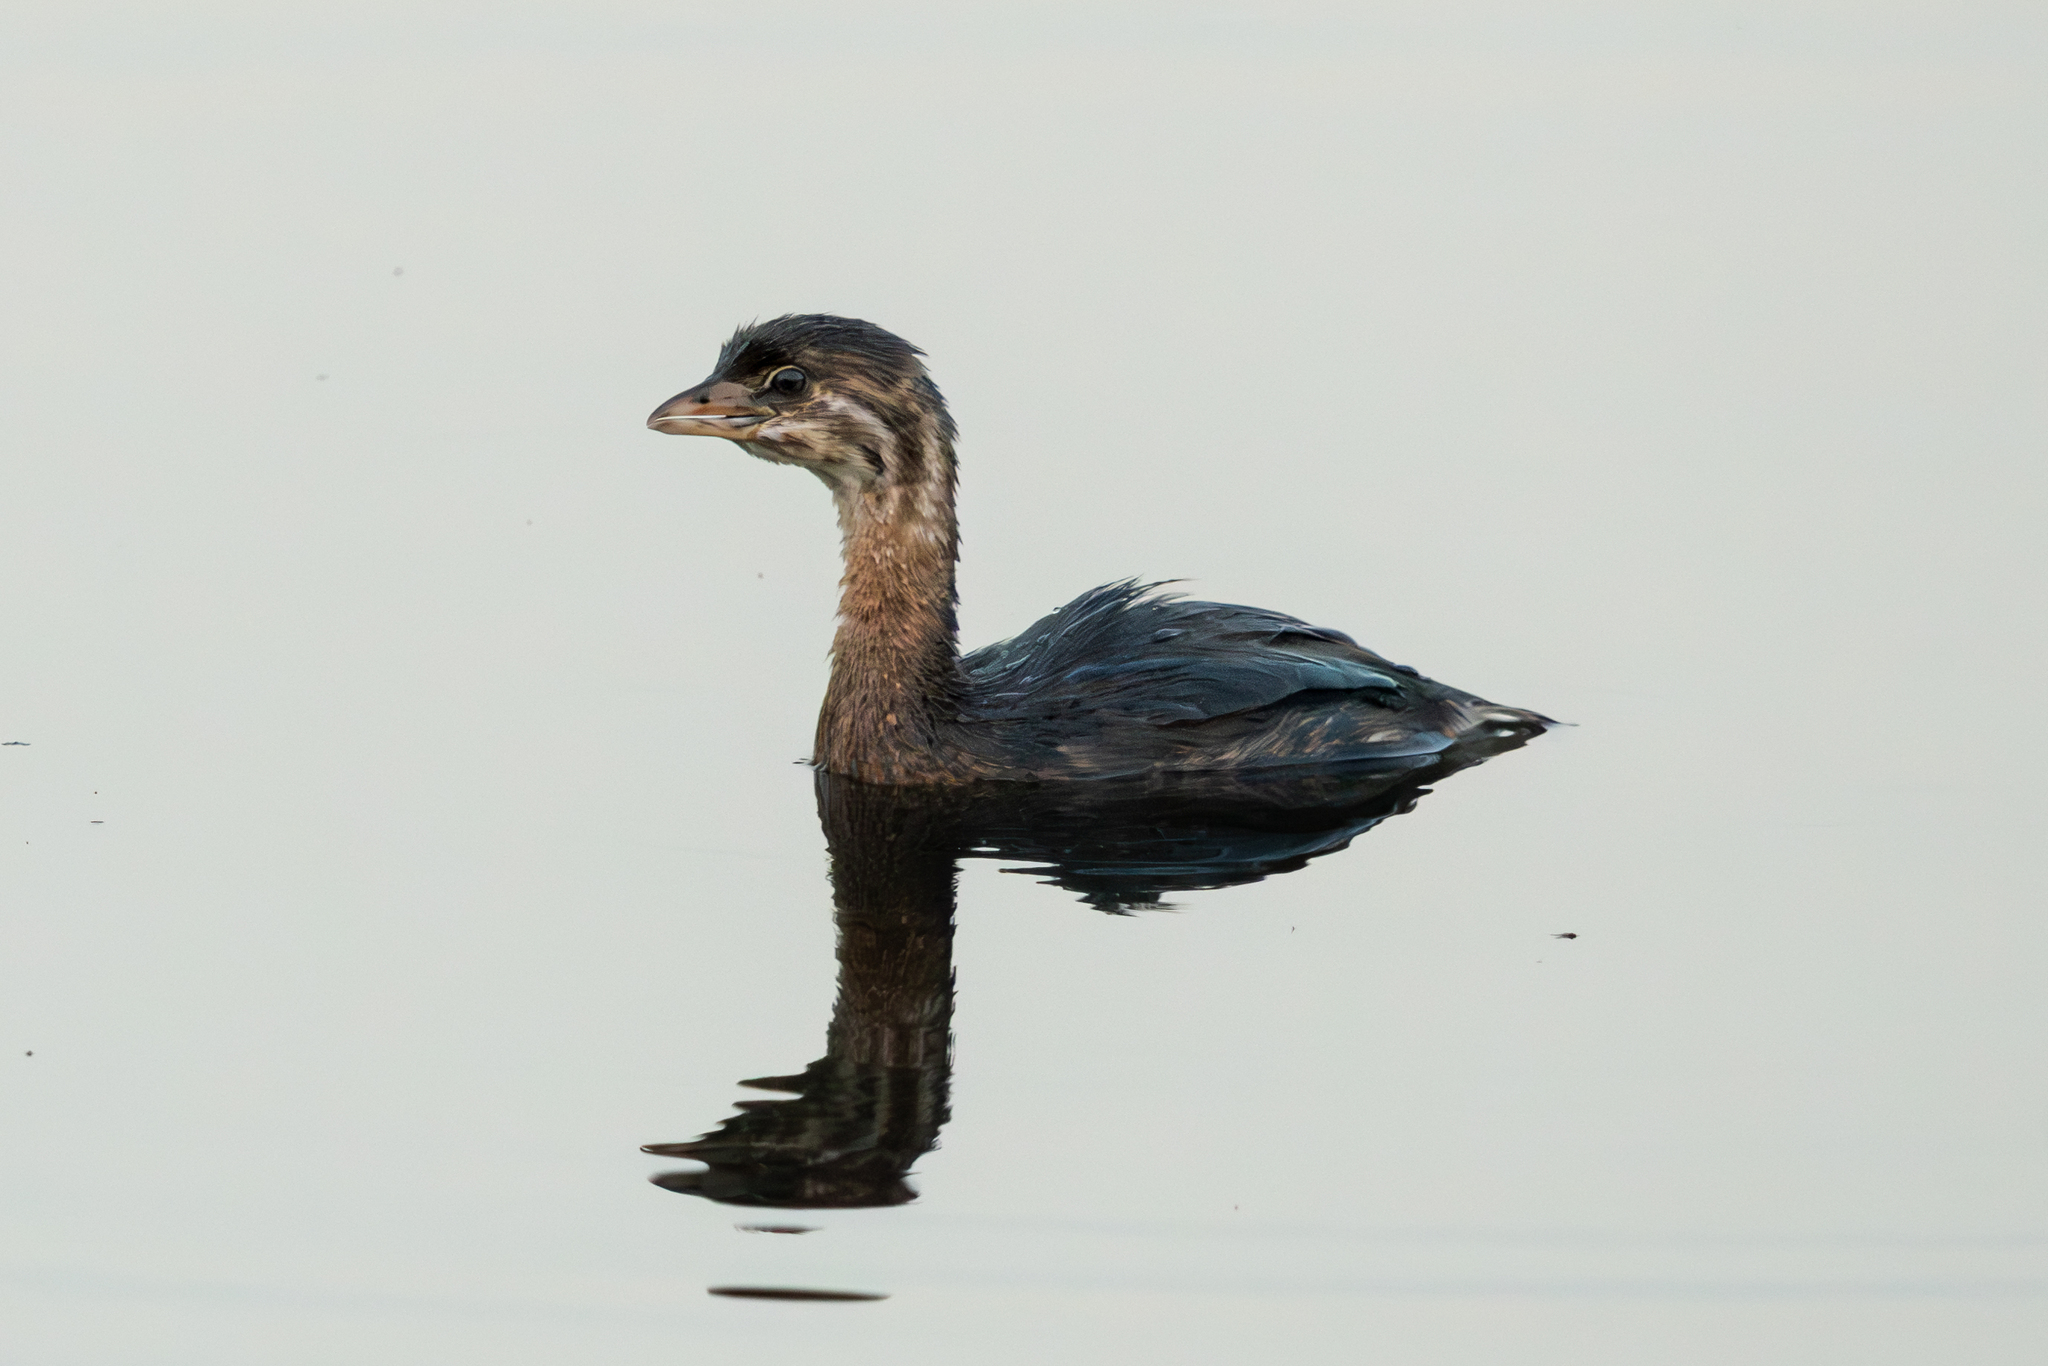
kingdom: Animalia
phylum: Chordata
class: Aves
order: Podicipediformes
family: Podicipedidae
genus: Podilymbus
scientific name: Podilymbus podiceps
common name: Pied-billed grebe
